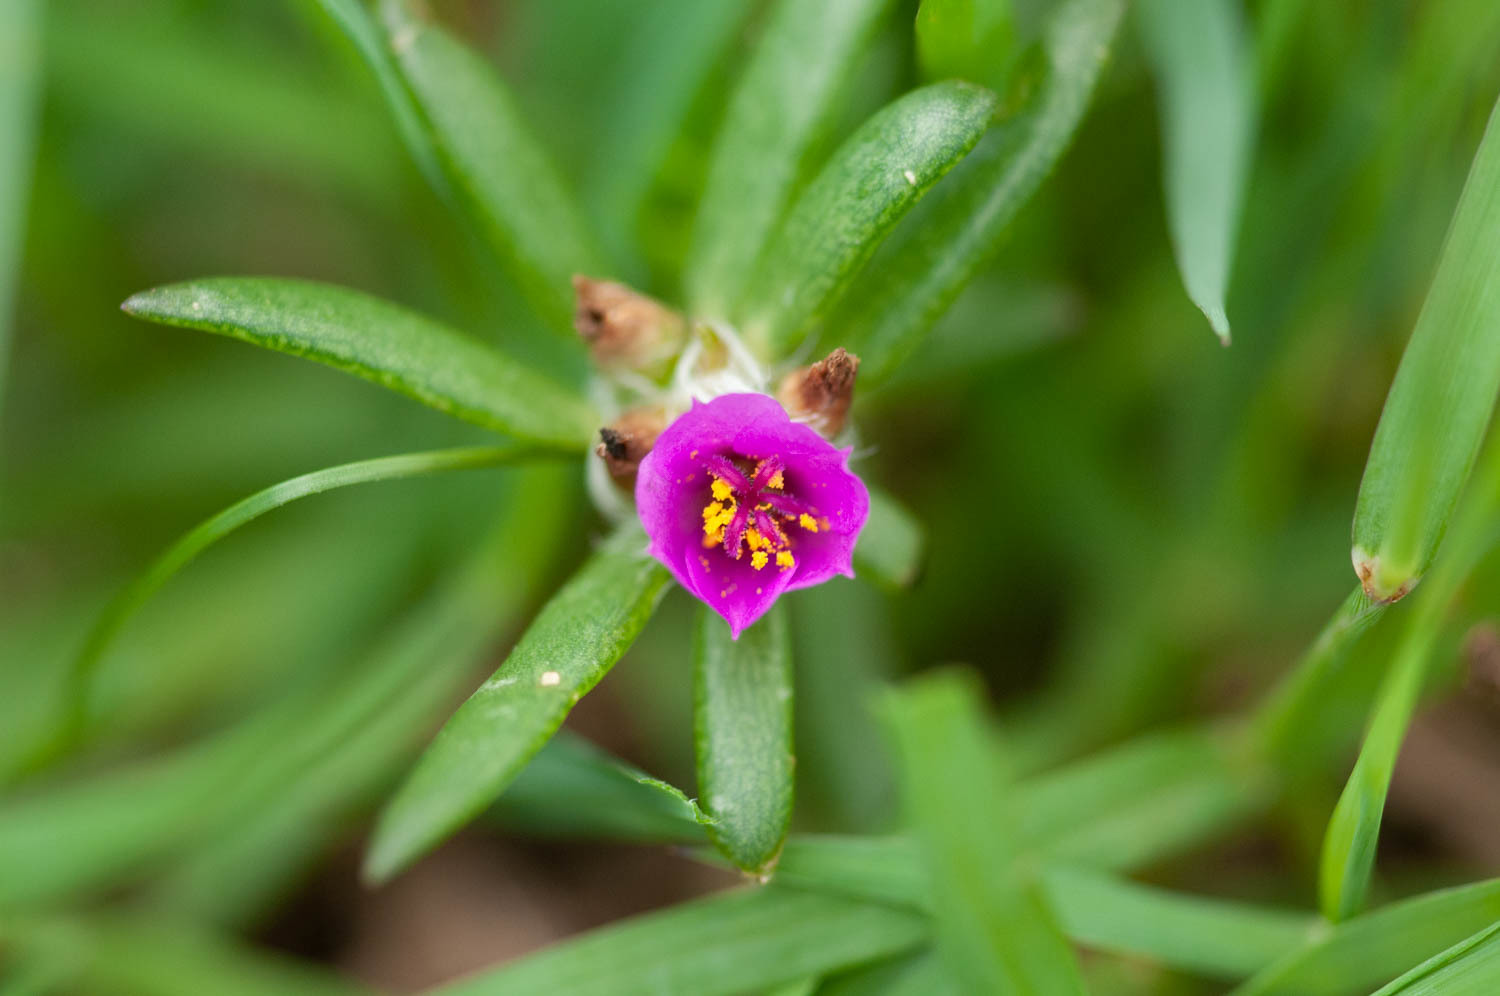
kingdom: Plantae
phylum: Tracheophyta
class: Magnoliopsida
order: Caryophyllales
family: Portulacaceae
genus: Portulaca
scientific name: Portulaca pilosa
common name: Kiss me quick
